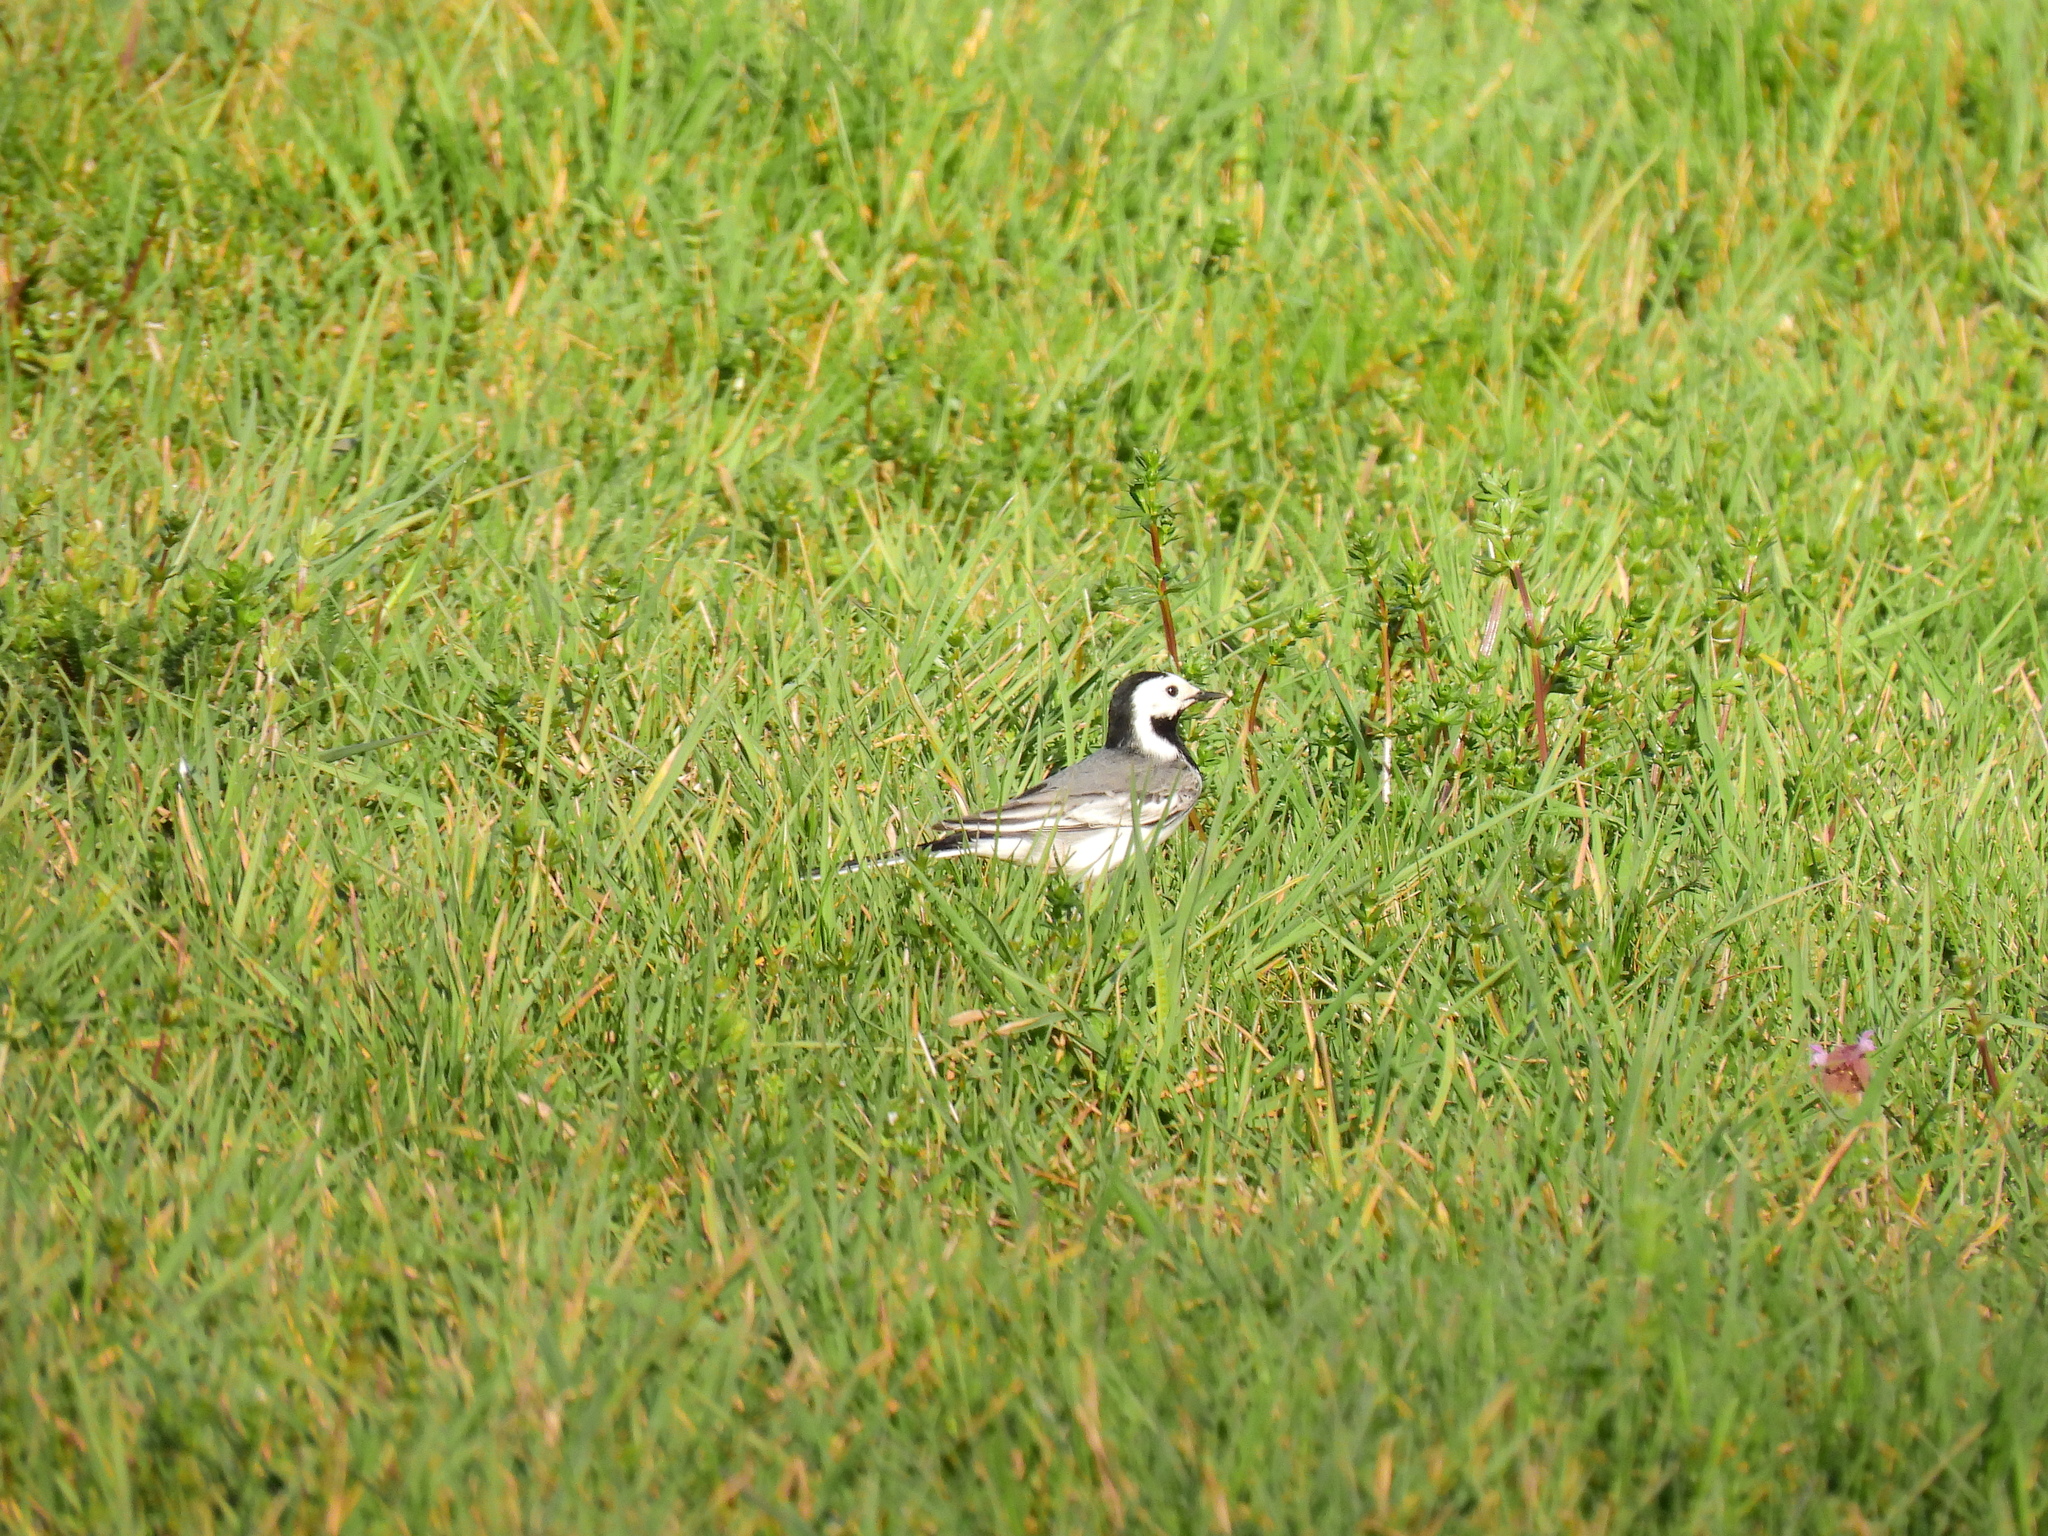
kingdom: Animalia
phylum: Chordata
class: Aves
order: Passeriformes
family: Motacillidae
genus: Motacilla
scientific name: Motacilla alba
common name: White wagtail
